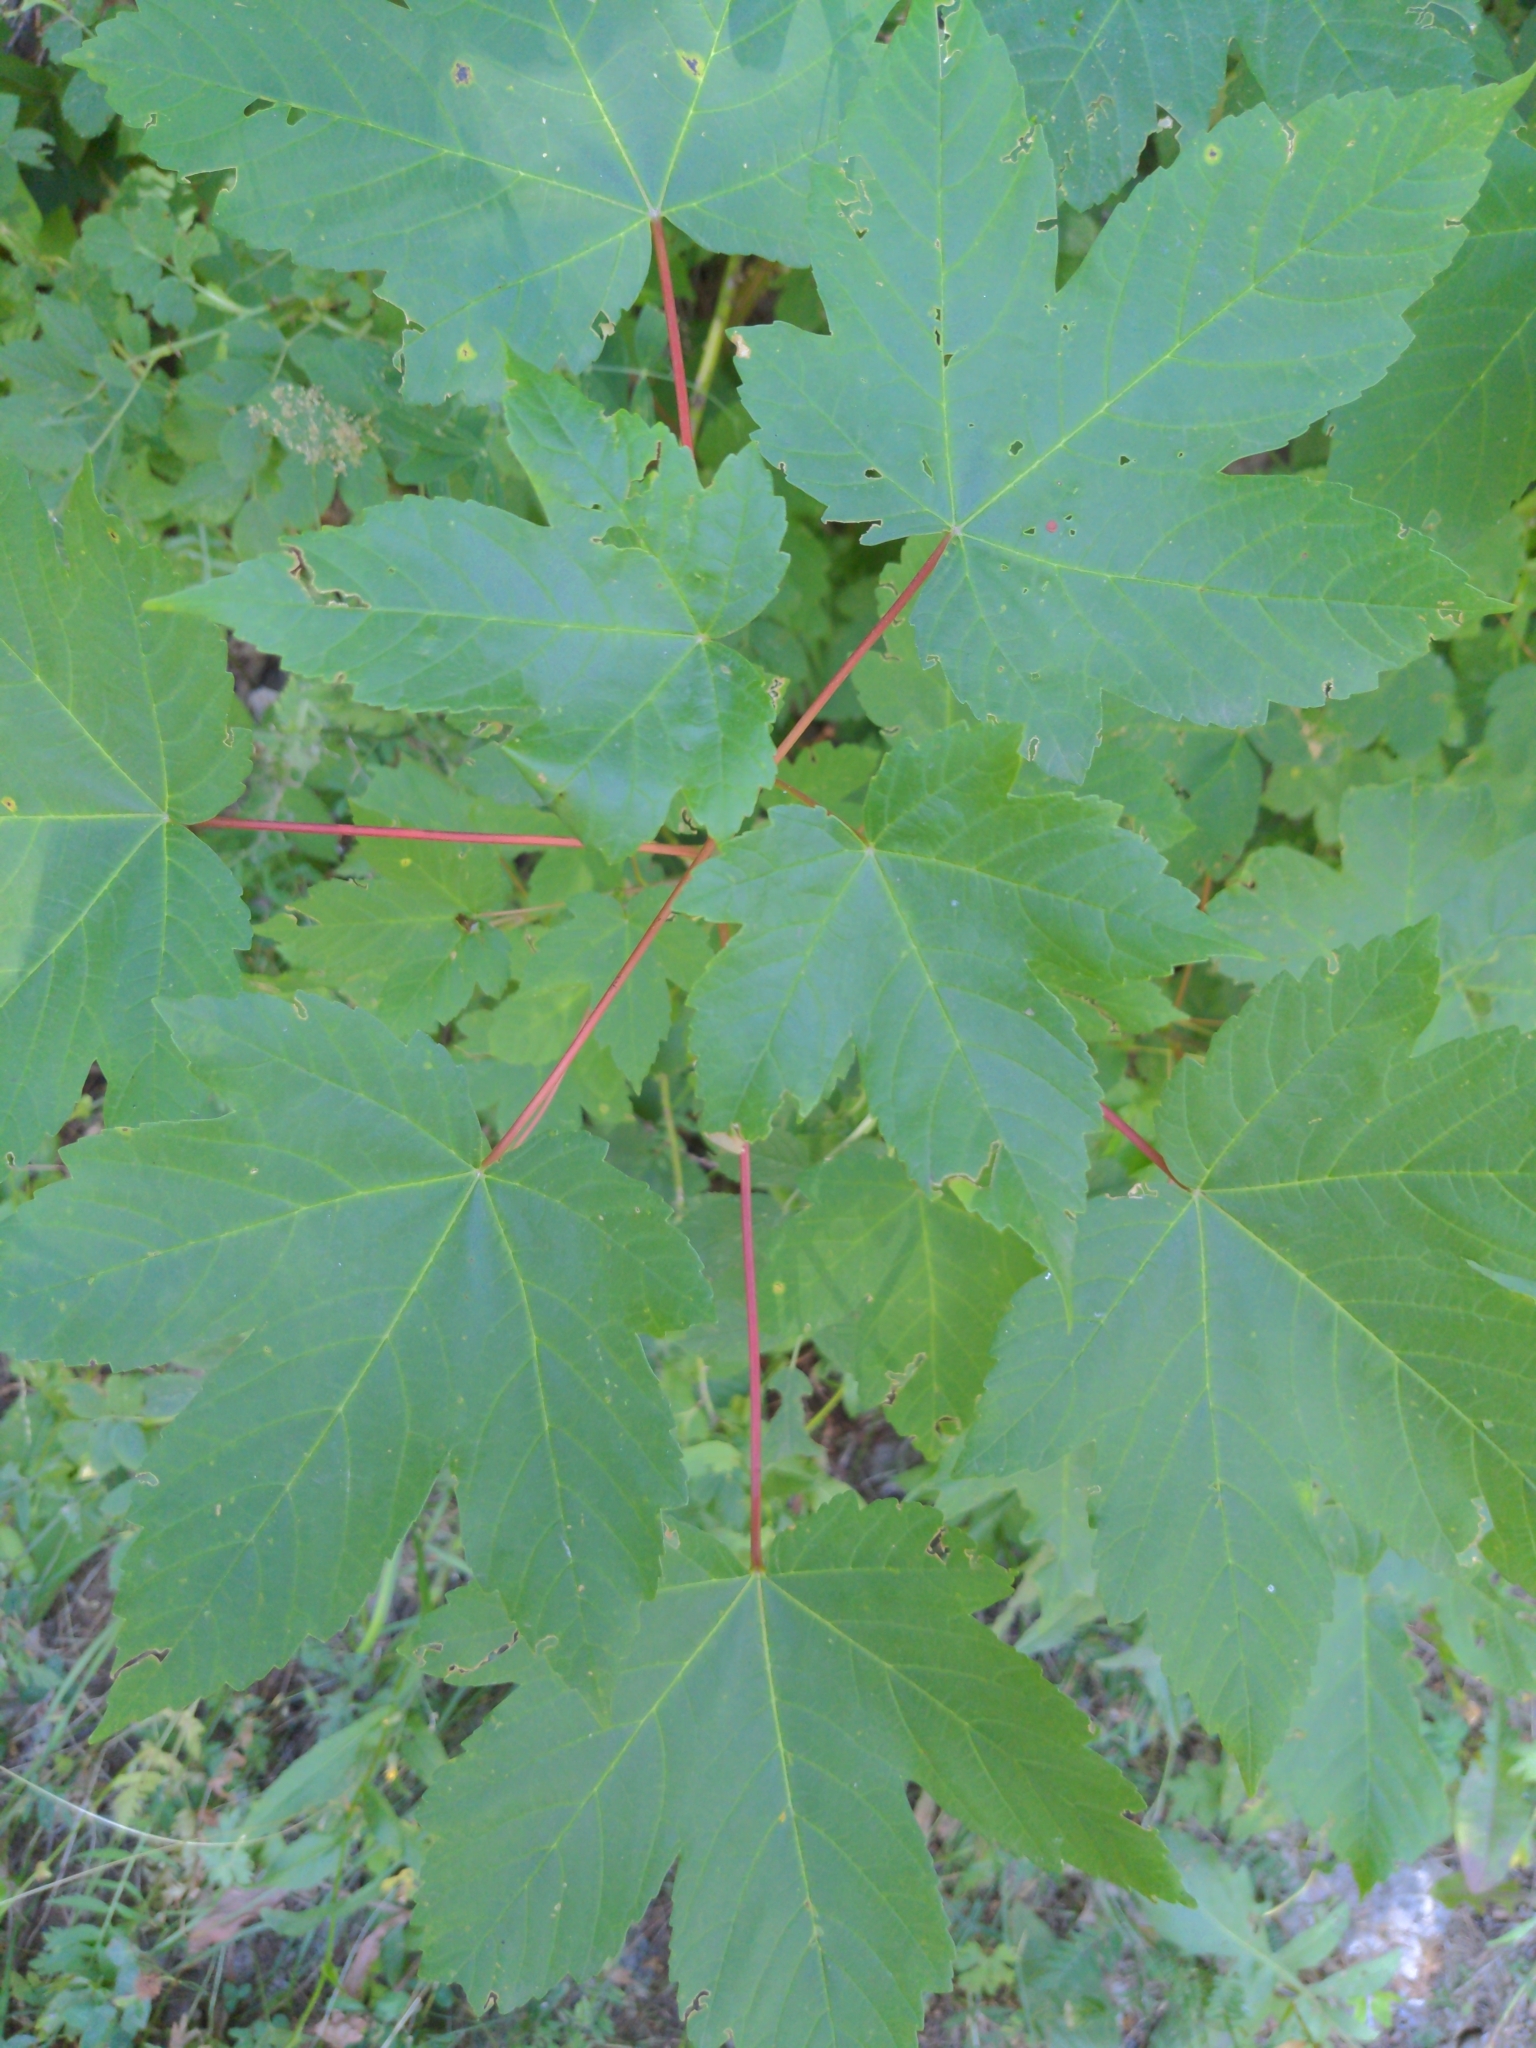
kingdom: Plantae
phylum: Tracheophyta
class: Magnoliopsida
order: Sapindales
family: Sapindaceae
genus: Acer
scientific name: Acer pseudoplatanus
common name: Sycamore
